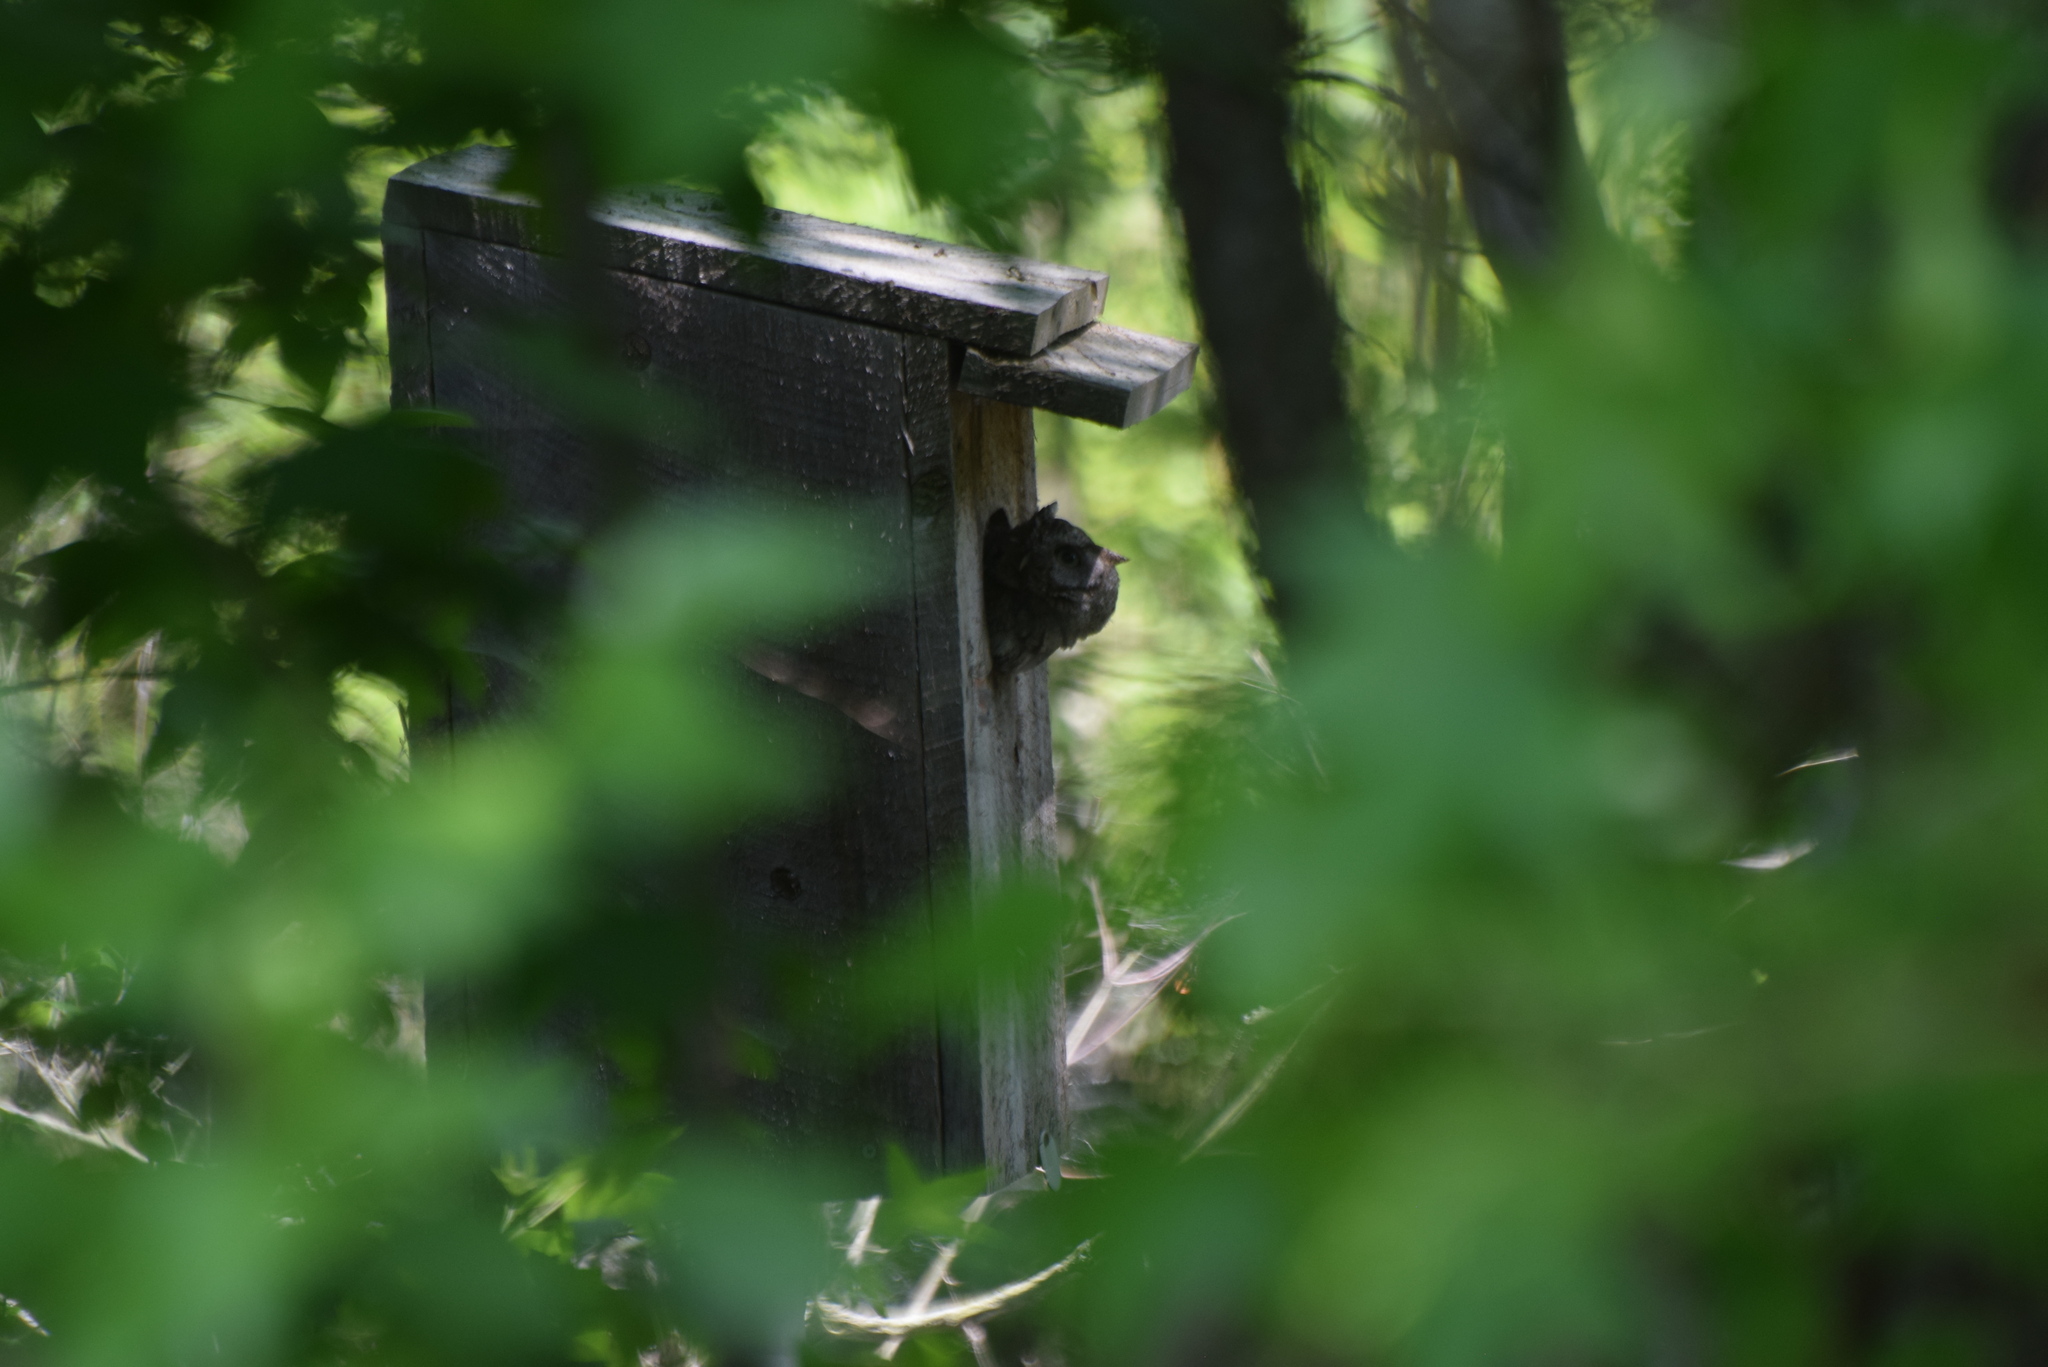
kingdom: Animalia
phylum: Chordata
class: Aves
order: Strigiformes
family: Strigidae
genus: Megascops
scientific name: Megascops asio
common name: Eastern screech-owl
